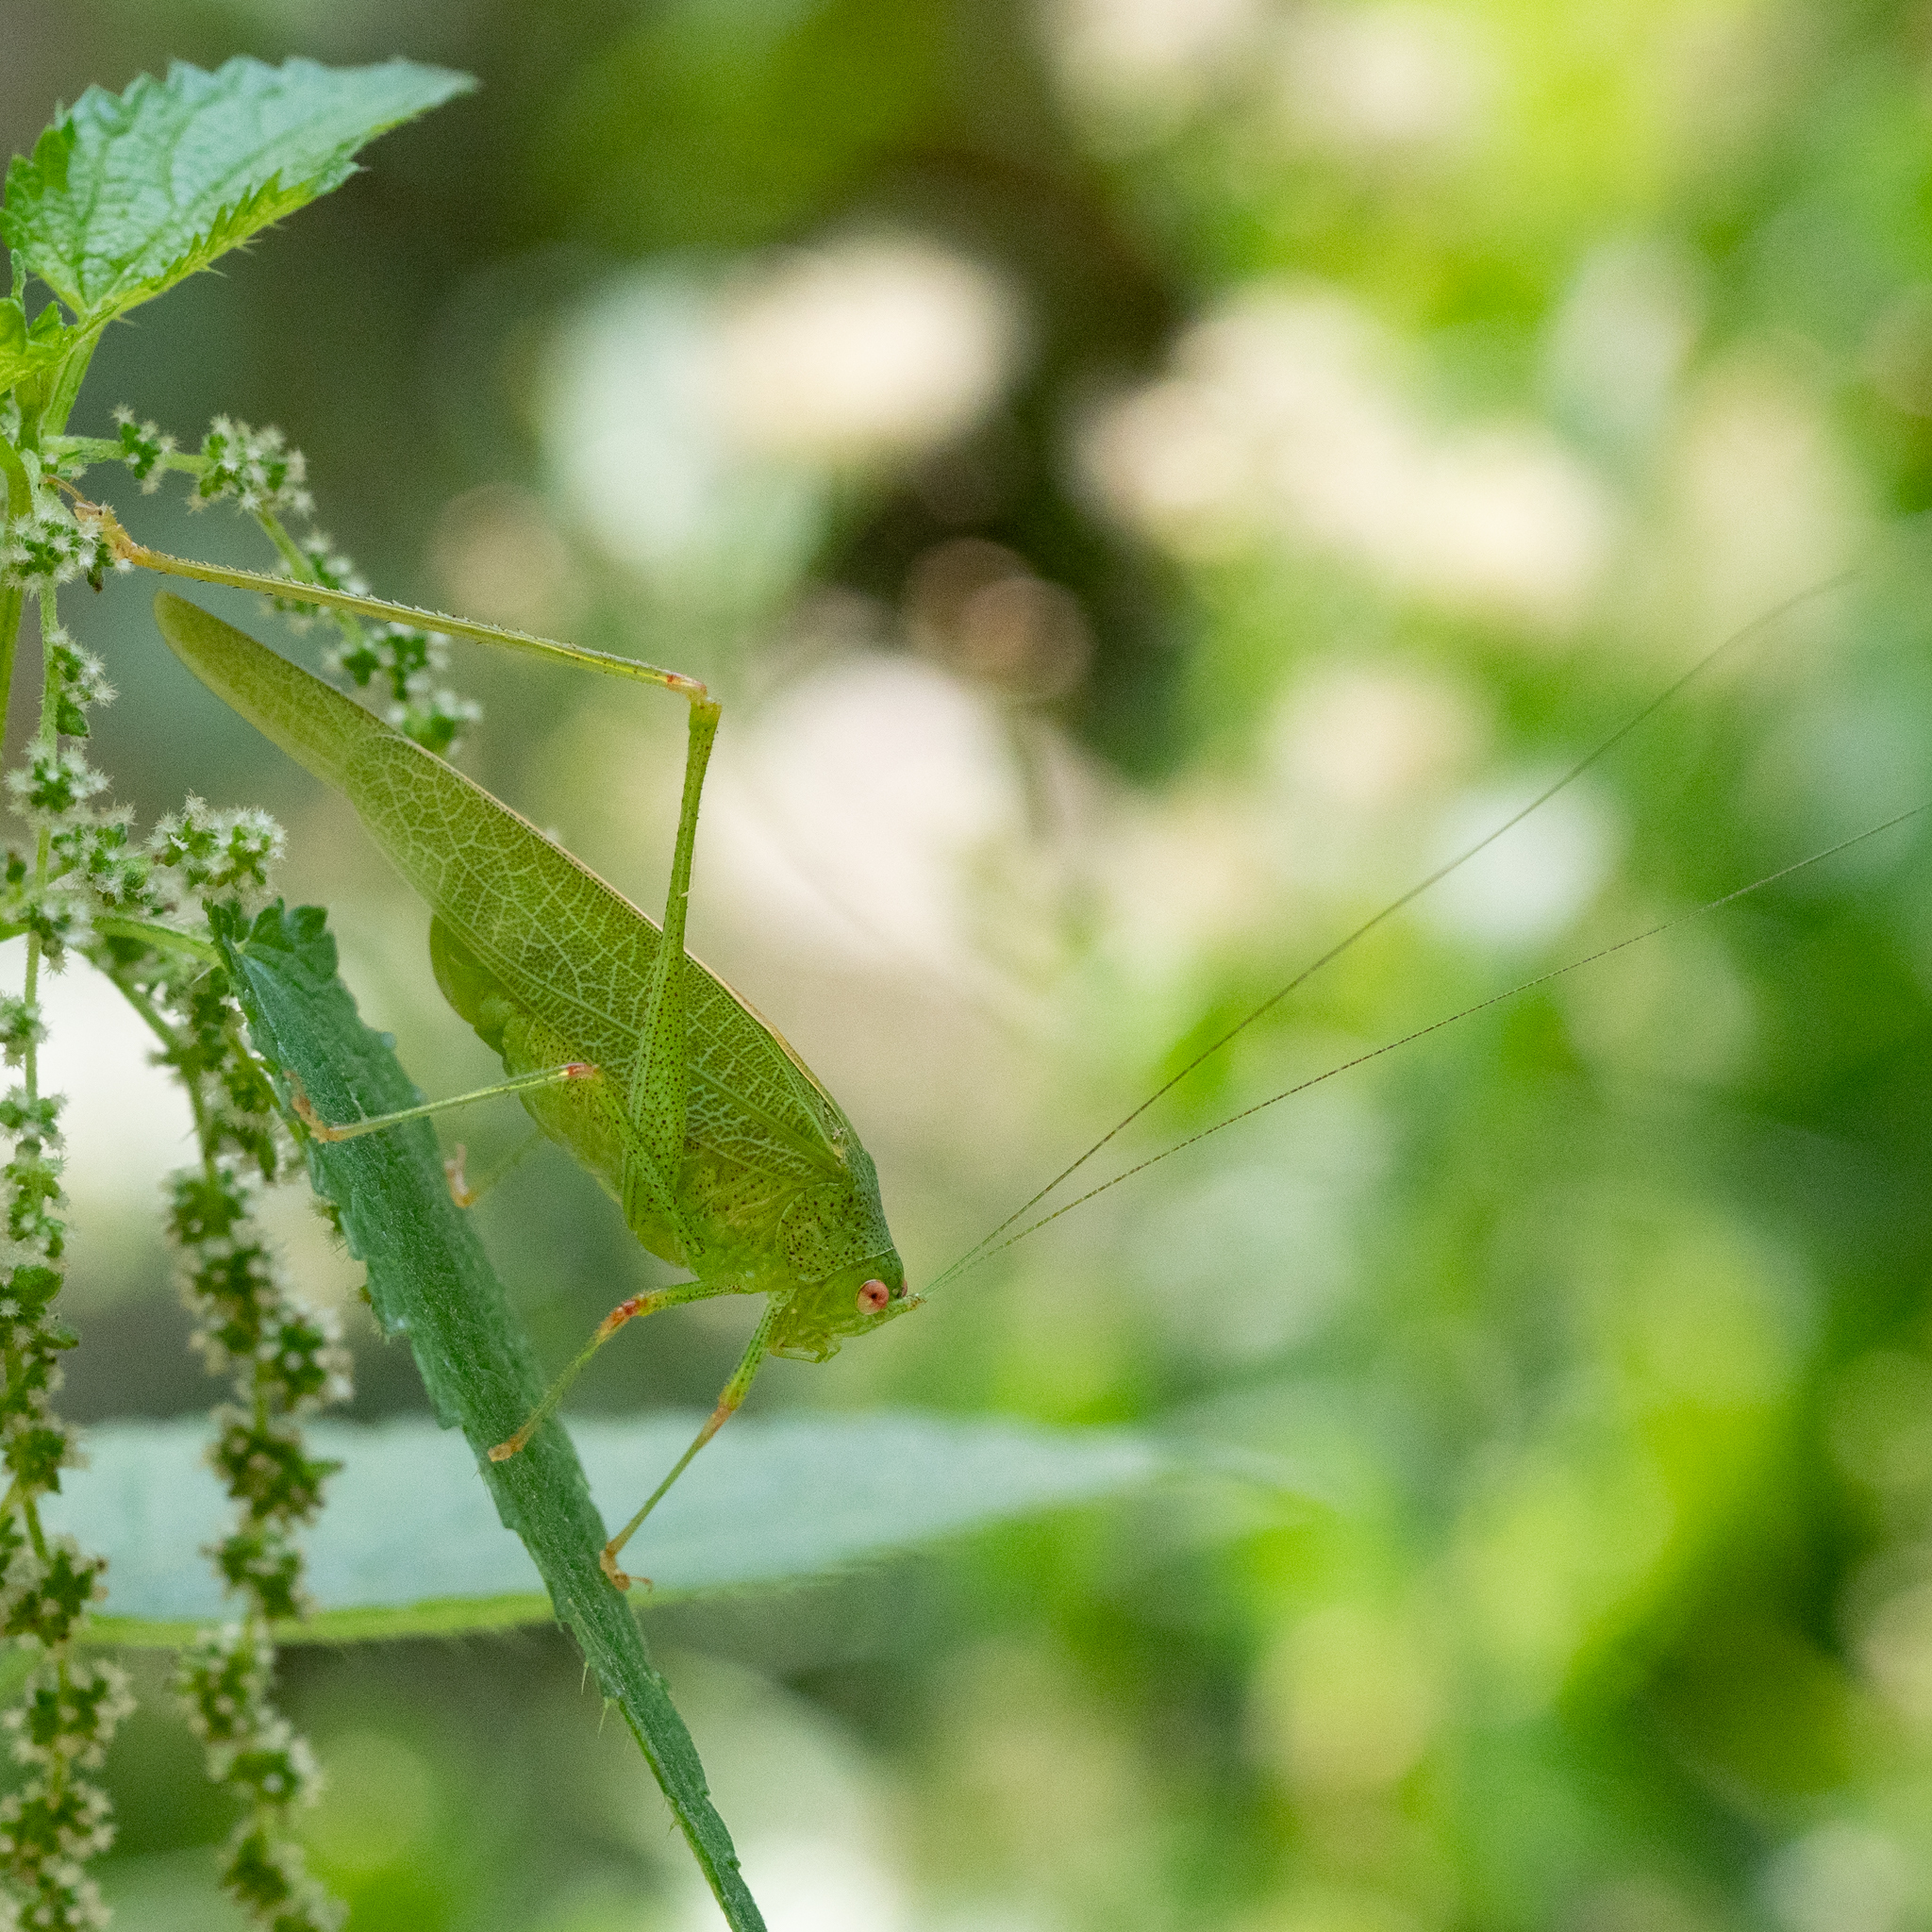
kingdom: Animalia
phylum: Arthropoda
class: Insecta
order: Orthoptera
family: Tettigoniidae
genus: Phaneroptera
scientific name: Phaneroptera nana
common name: Southern sickle bush-cricket
